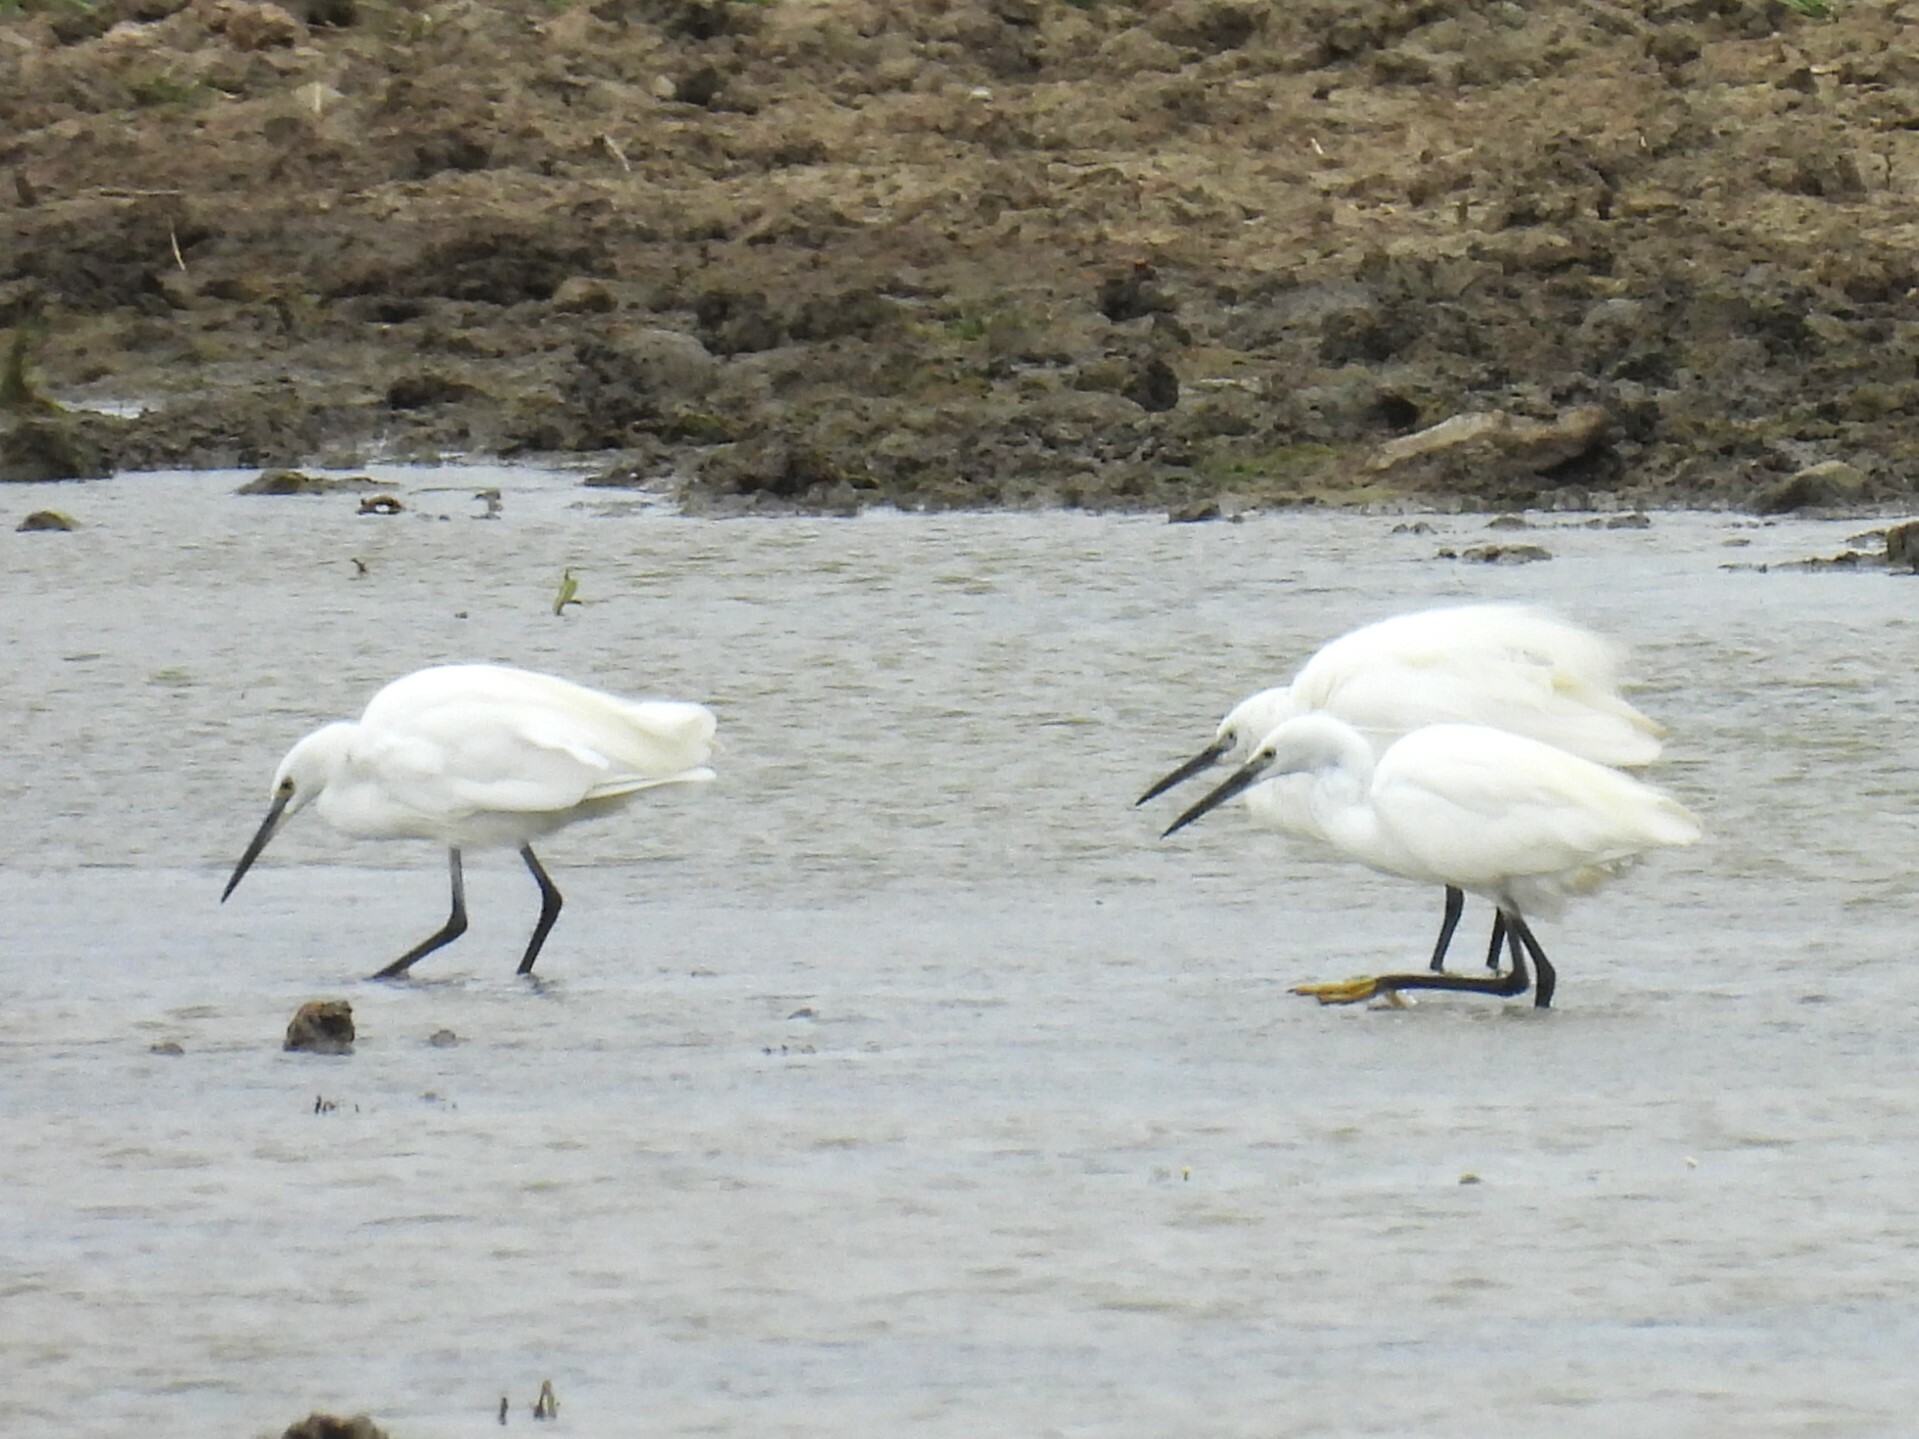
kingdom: Animalia
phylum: Chordata
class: Aves
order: Pelecaniformes
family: Ardeidae
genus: Egretta
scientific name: Egretta garzetta
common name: Little egret
